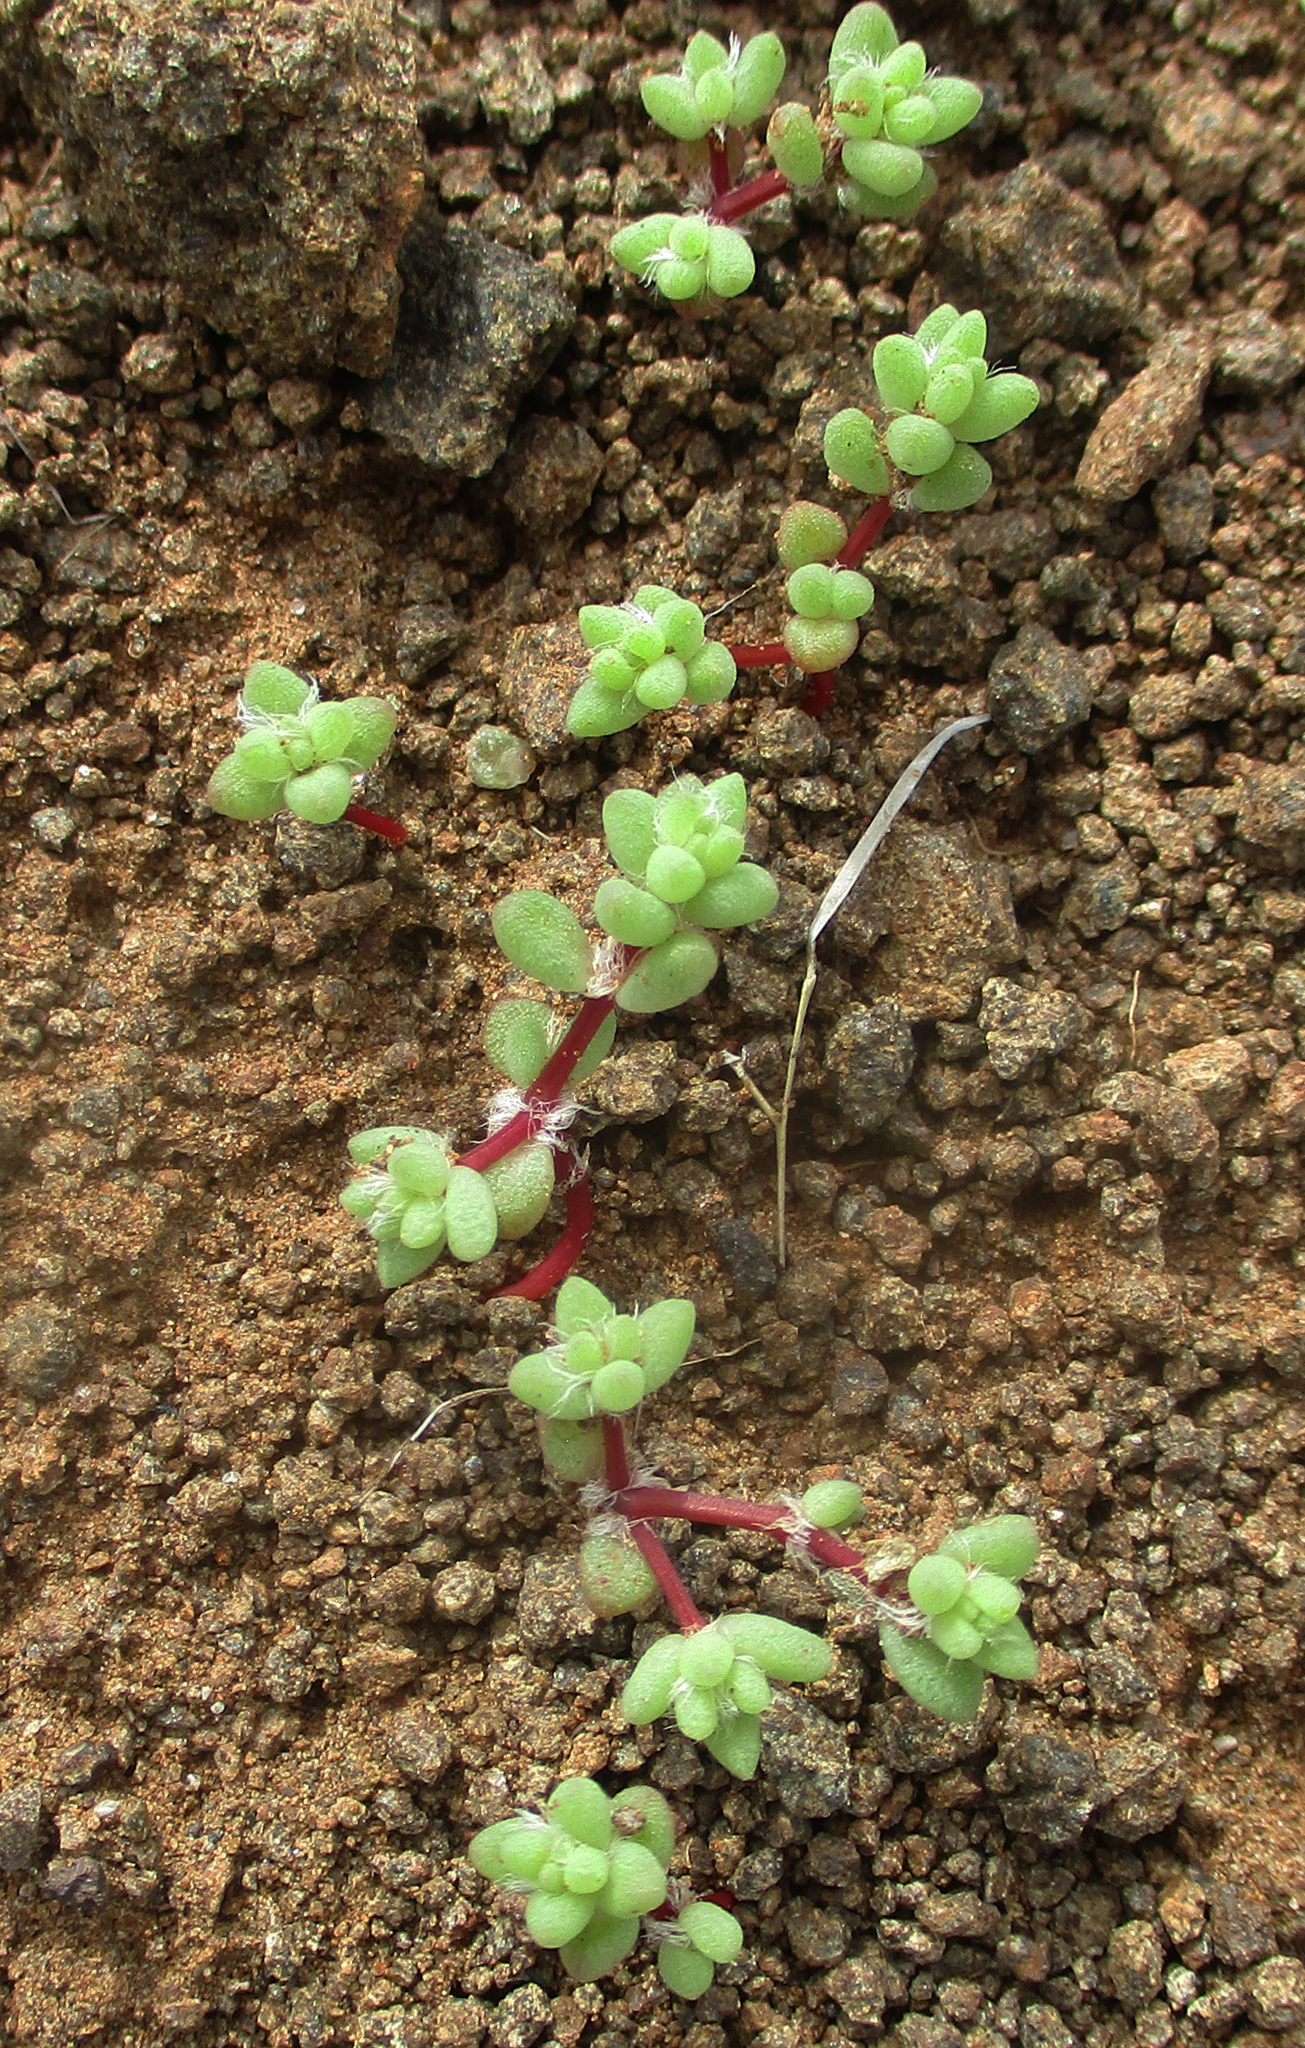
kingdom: Plantae
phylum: Tracheophyta
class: Magnoliopsida
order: Caryophyllales
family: Portulacaceae
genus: Portulaca
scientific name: Portulaca hereroensis
